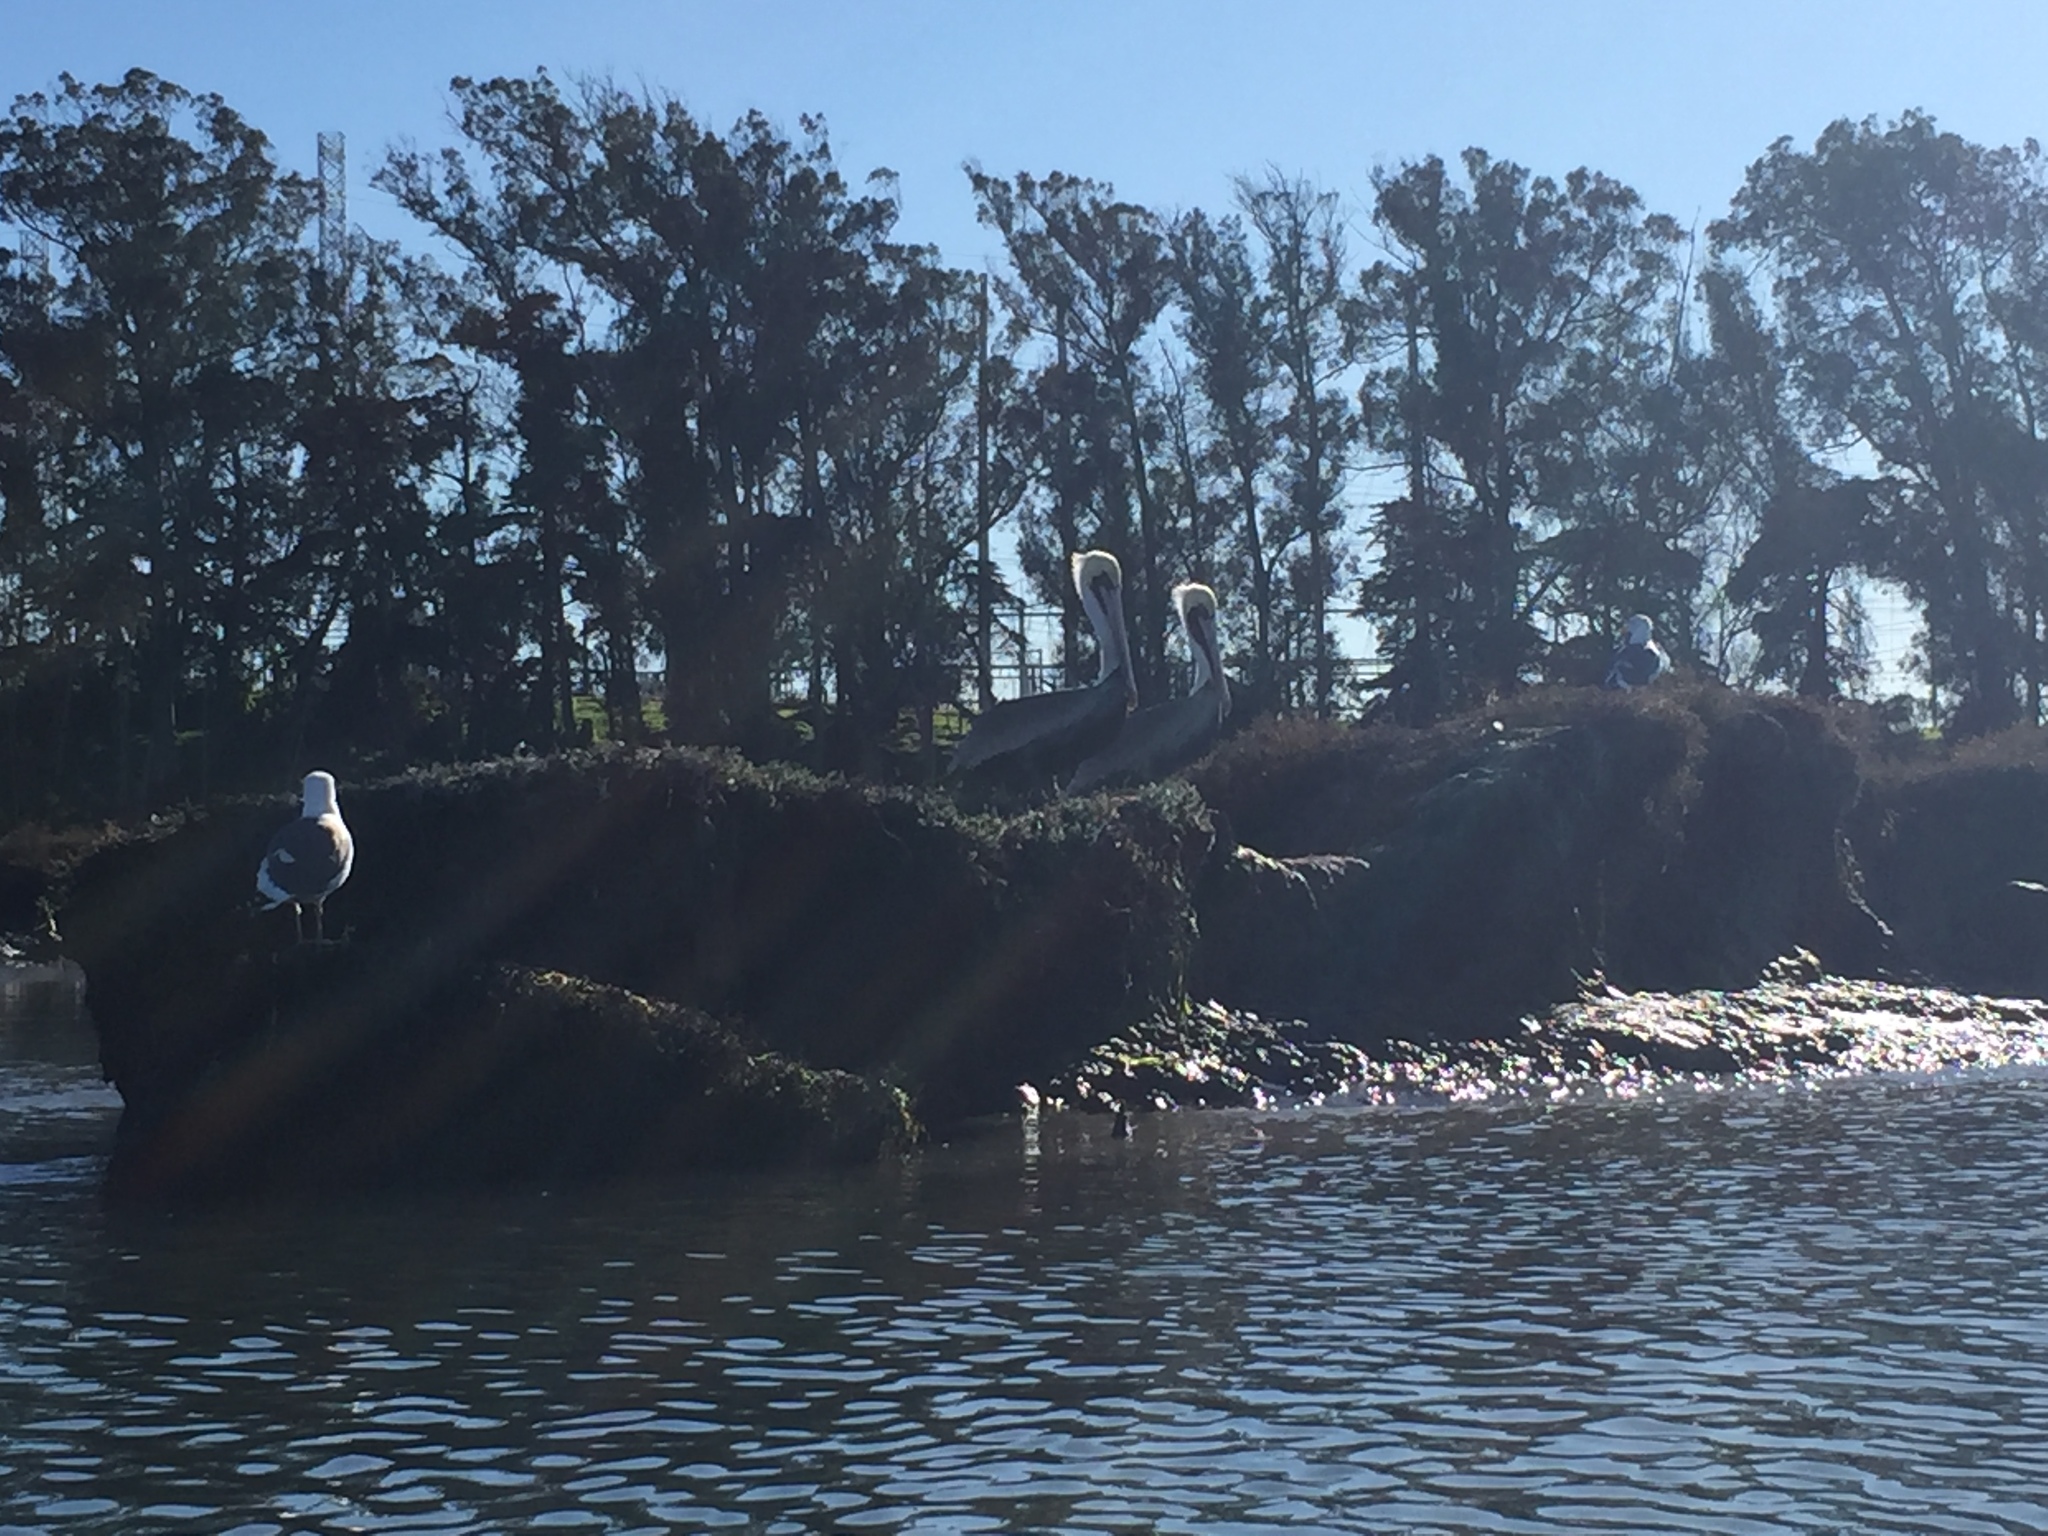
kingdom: Animalia
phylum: Chordata
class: Aves
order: Pelecaniformes
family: Pelecanidae
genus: Pelecanus
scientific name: Pelecanus occidentalis
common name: Brown pelican
